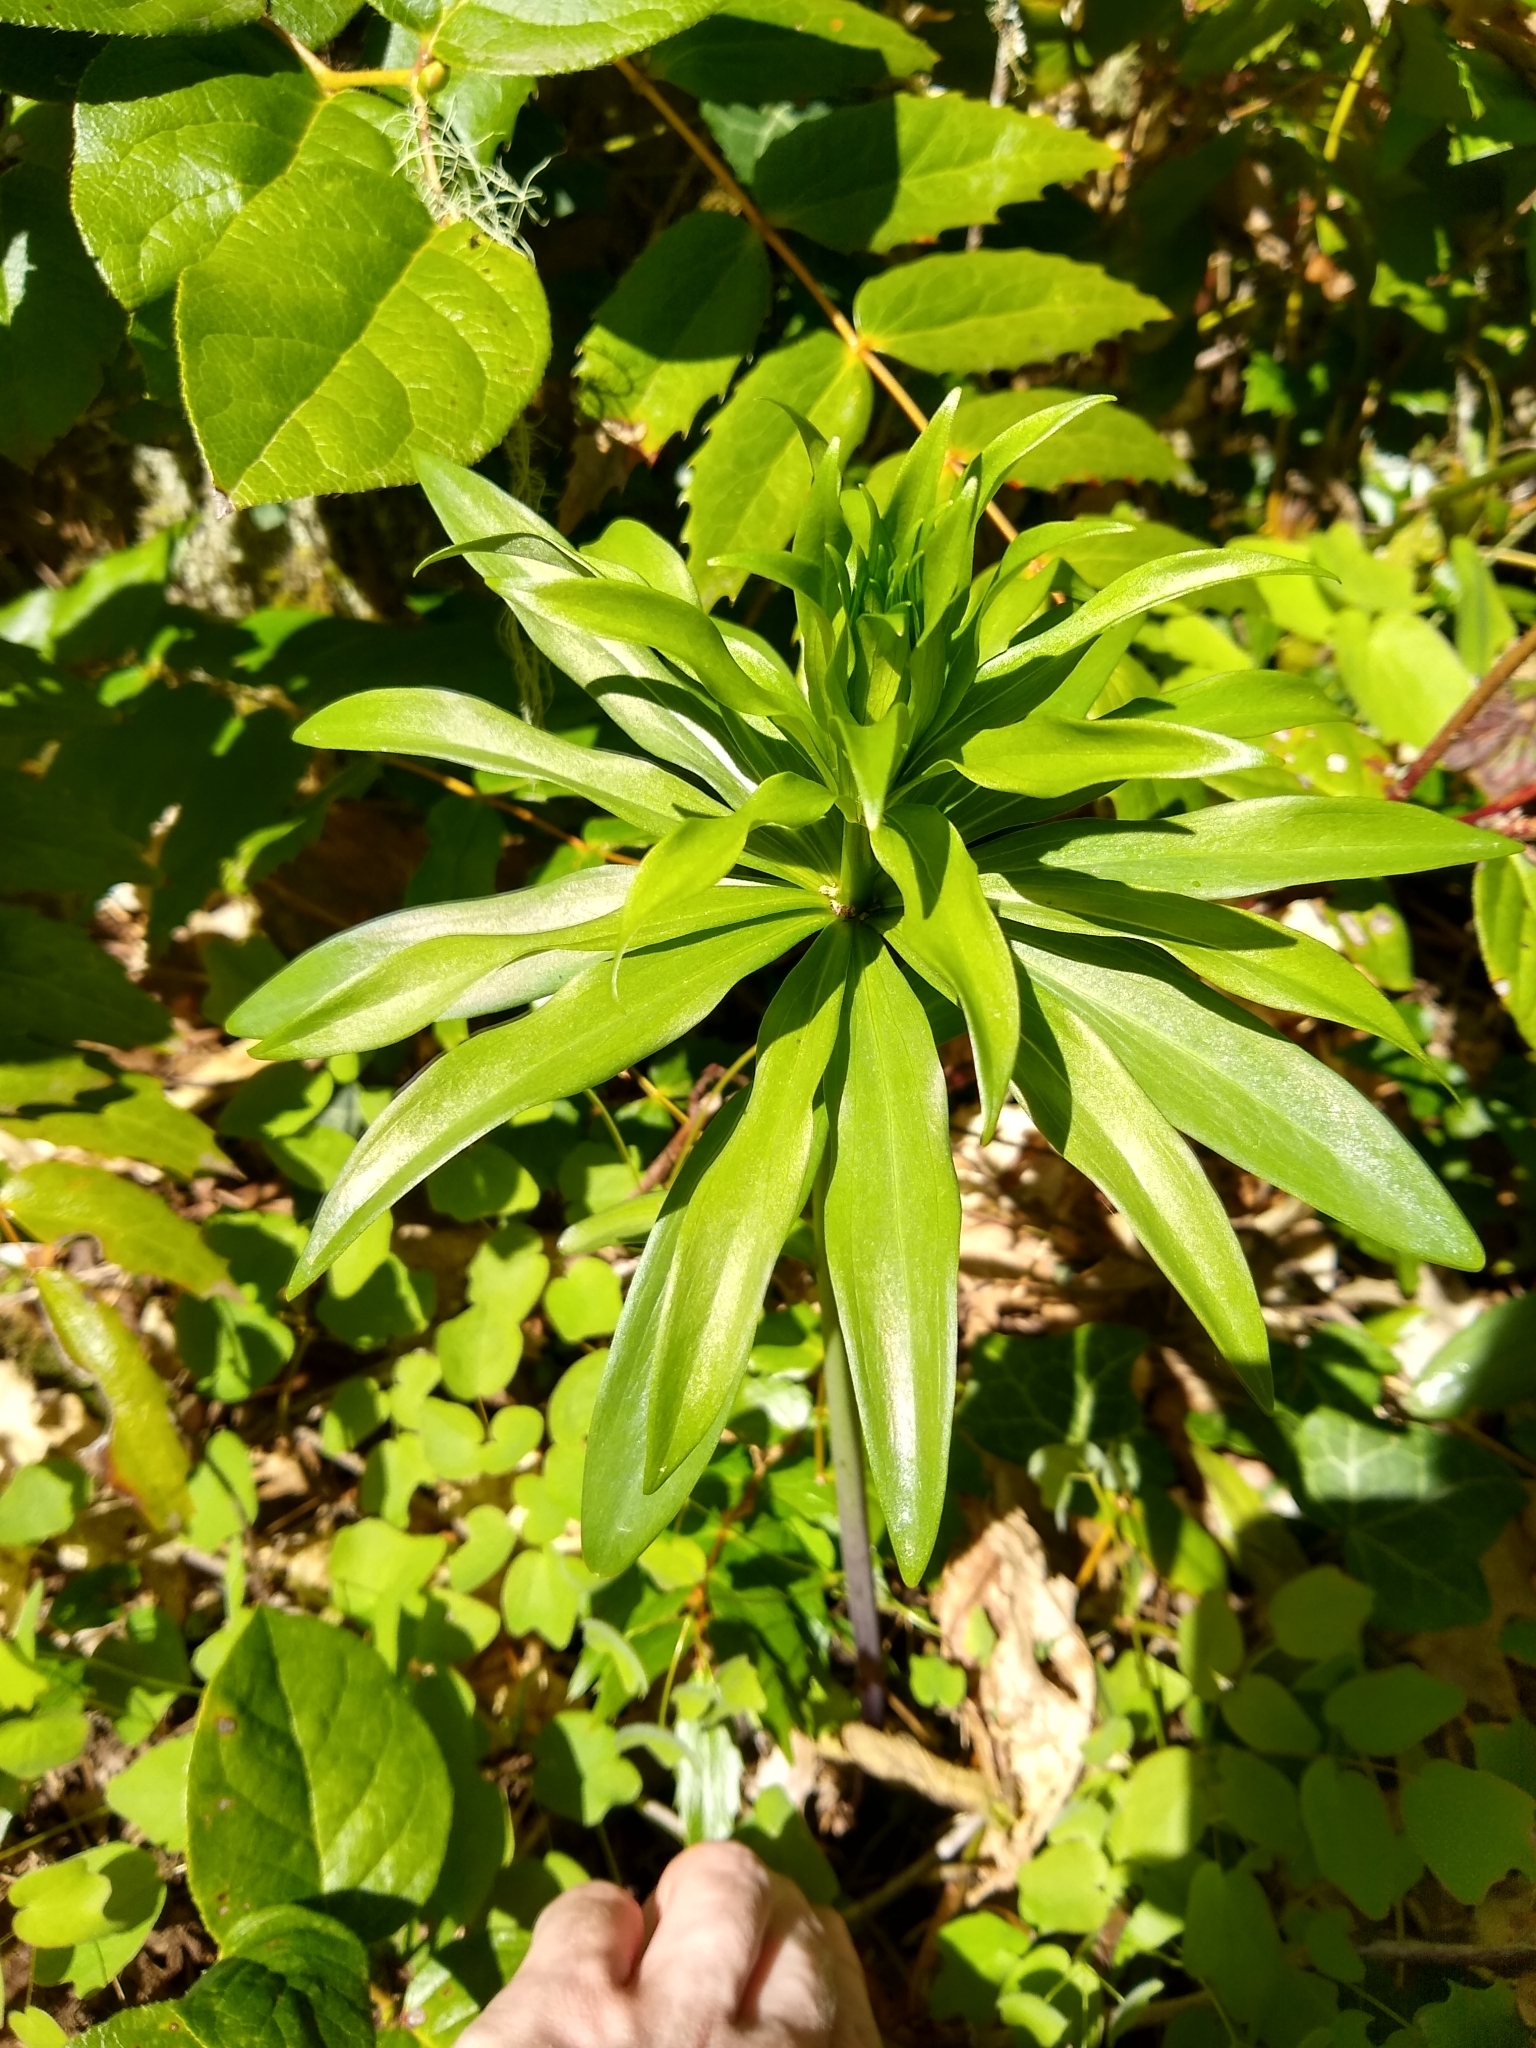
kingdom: Plantae
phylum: Tracheophyta
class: Liliopsida
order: Liliales
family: Liliaceae
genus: Lilium
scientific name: Lilium columbianum
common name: Columbia lily
